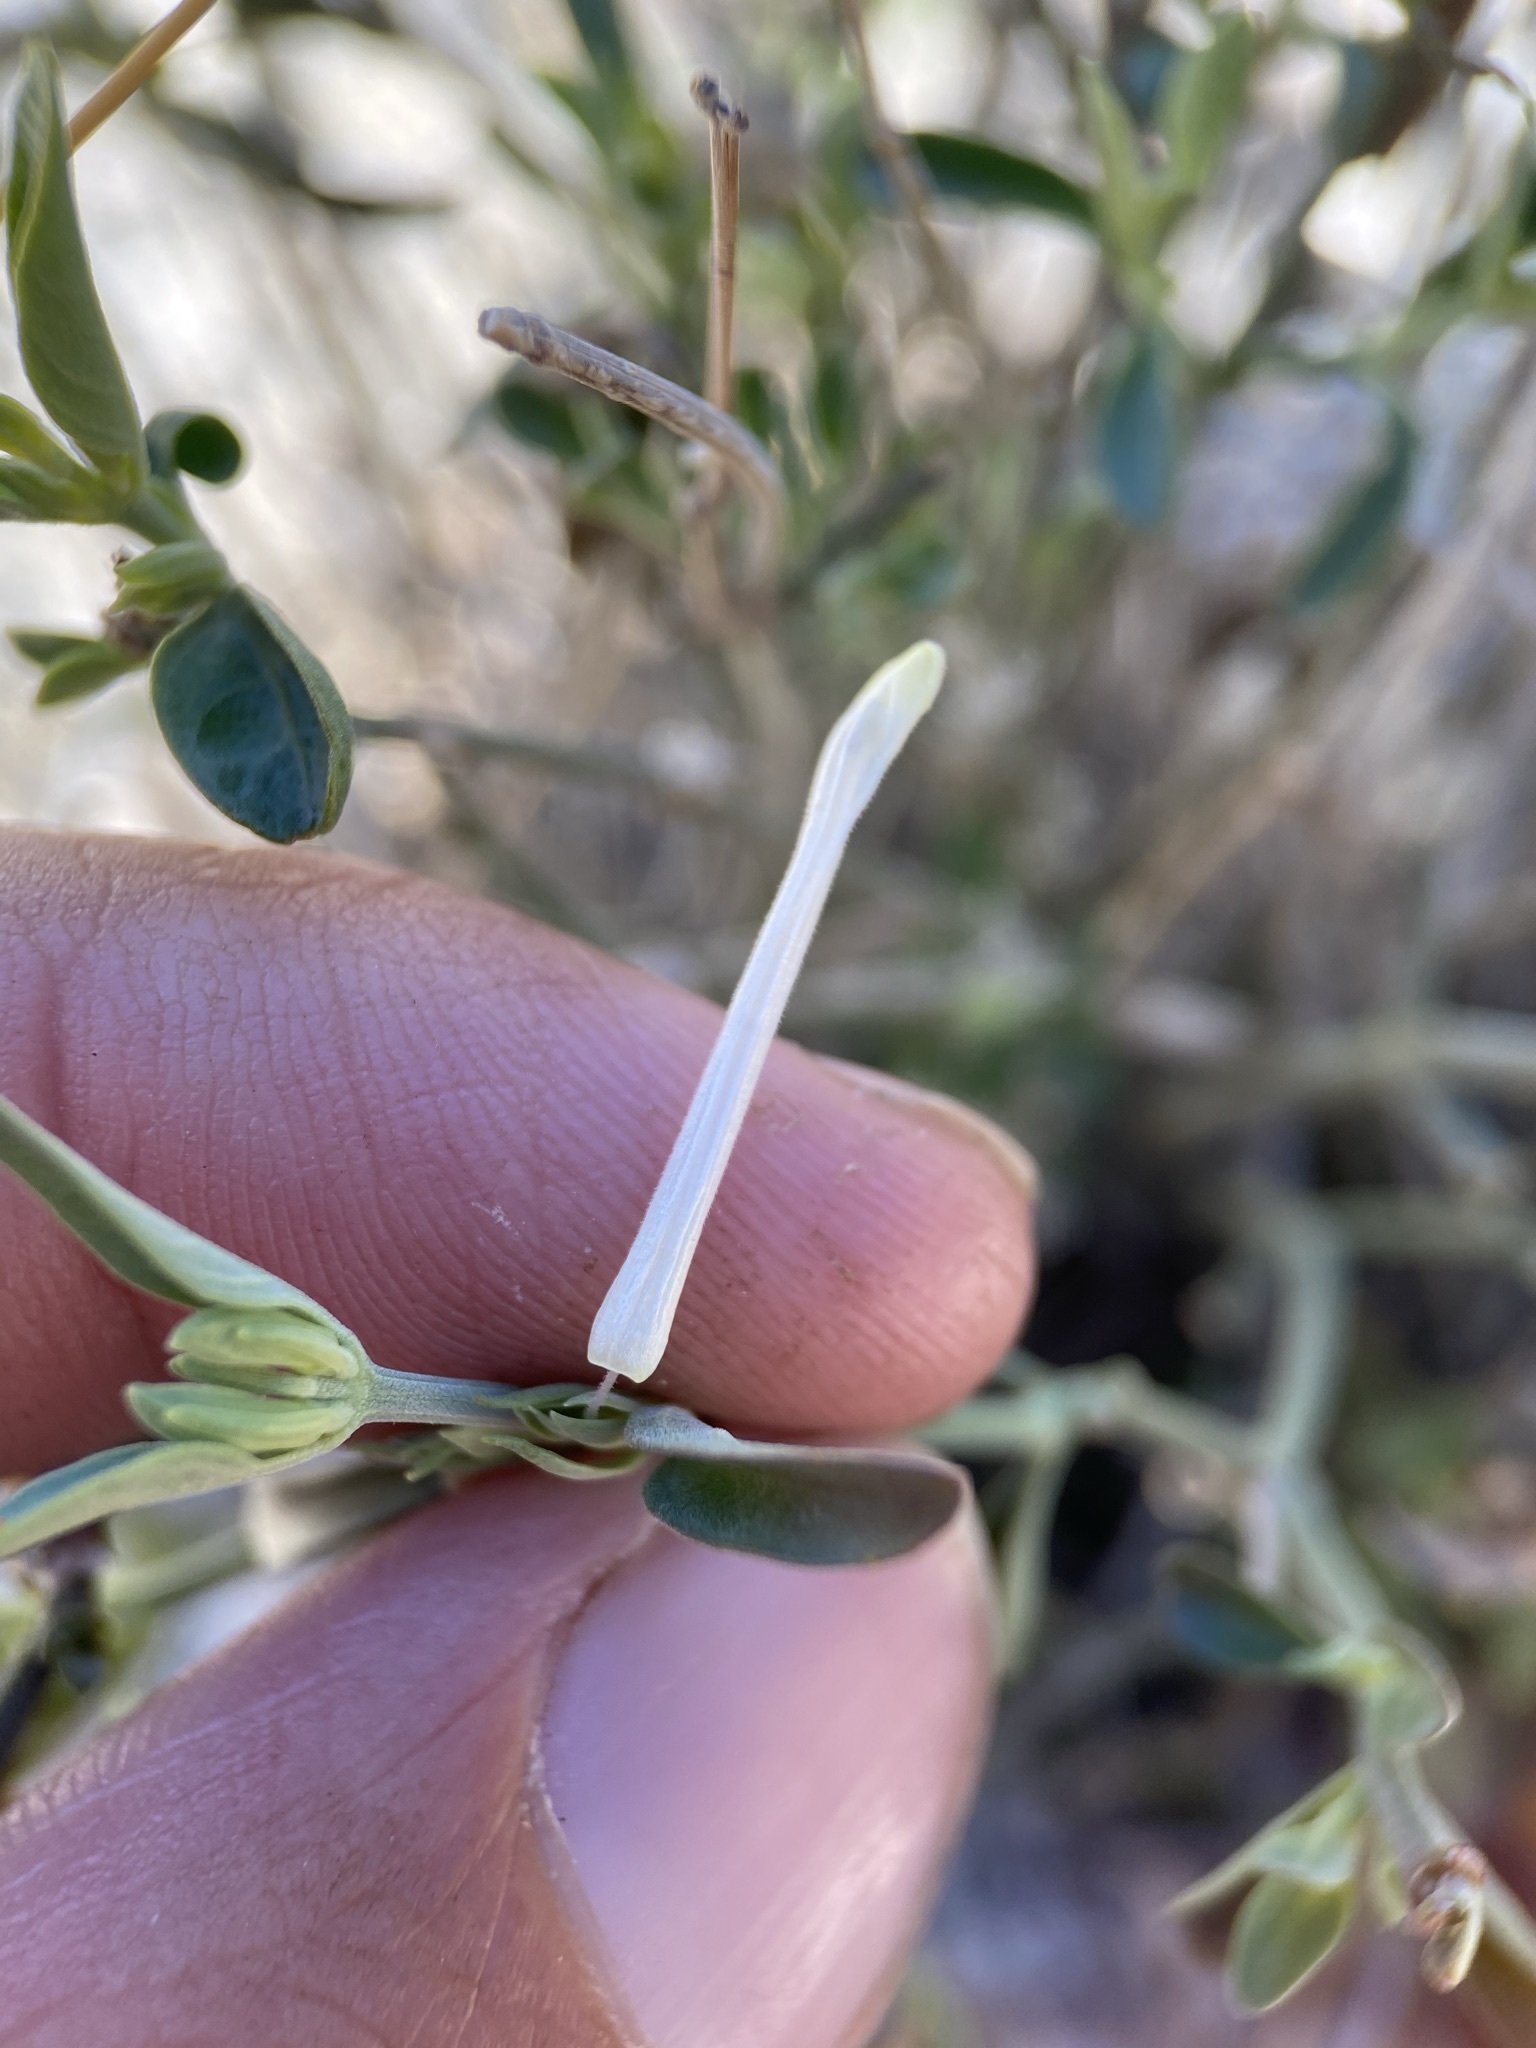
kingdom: Plantae
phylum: Tracheophyta
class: Magnoliopsida
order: Lamiales
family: Acanthaceae
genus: Justicia
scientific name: Justicia longii
